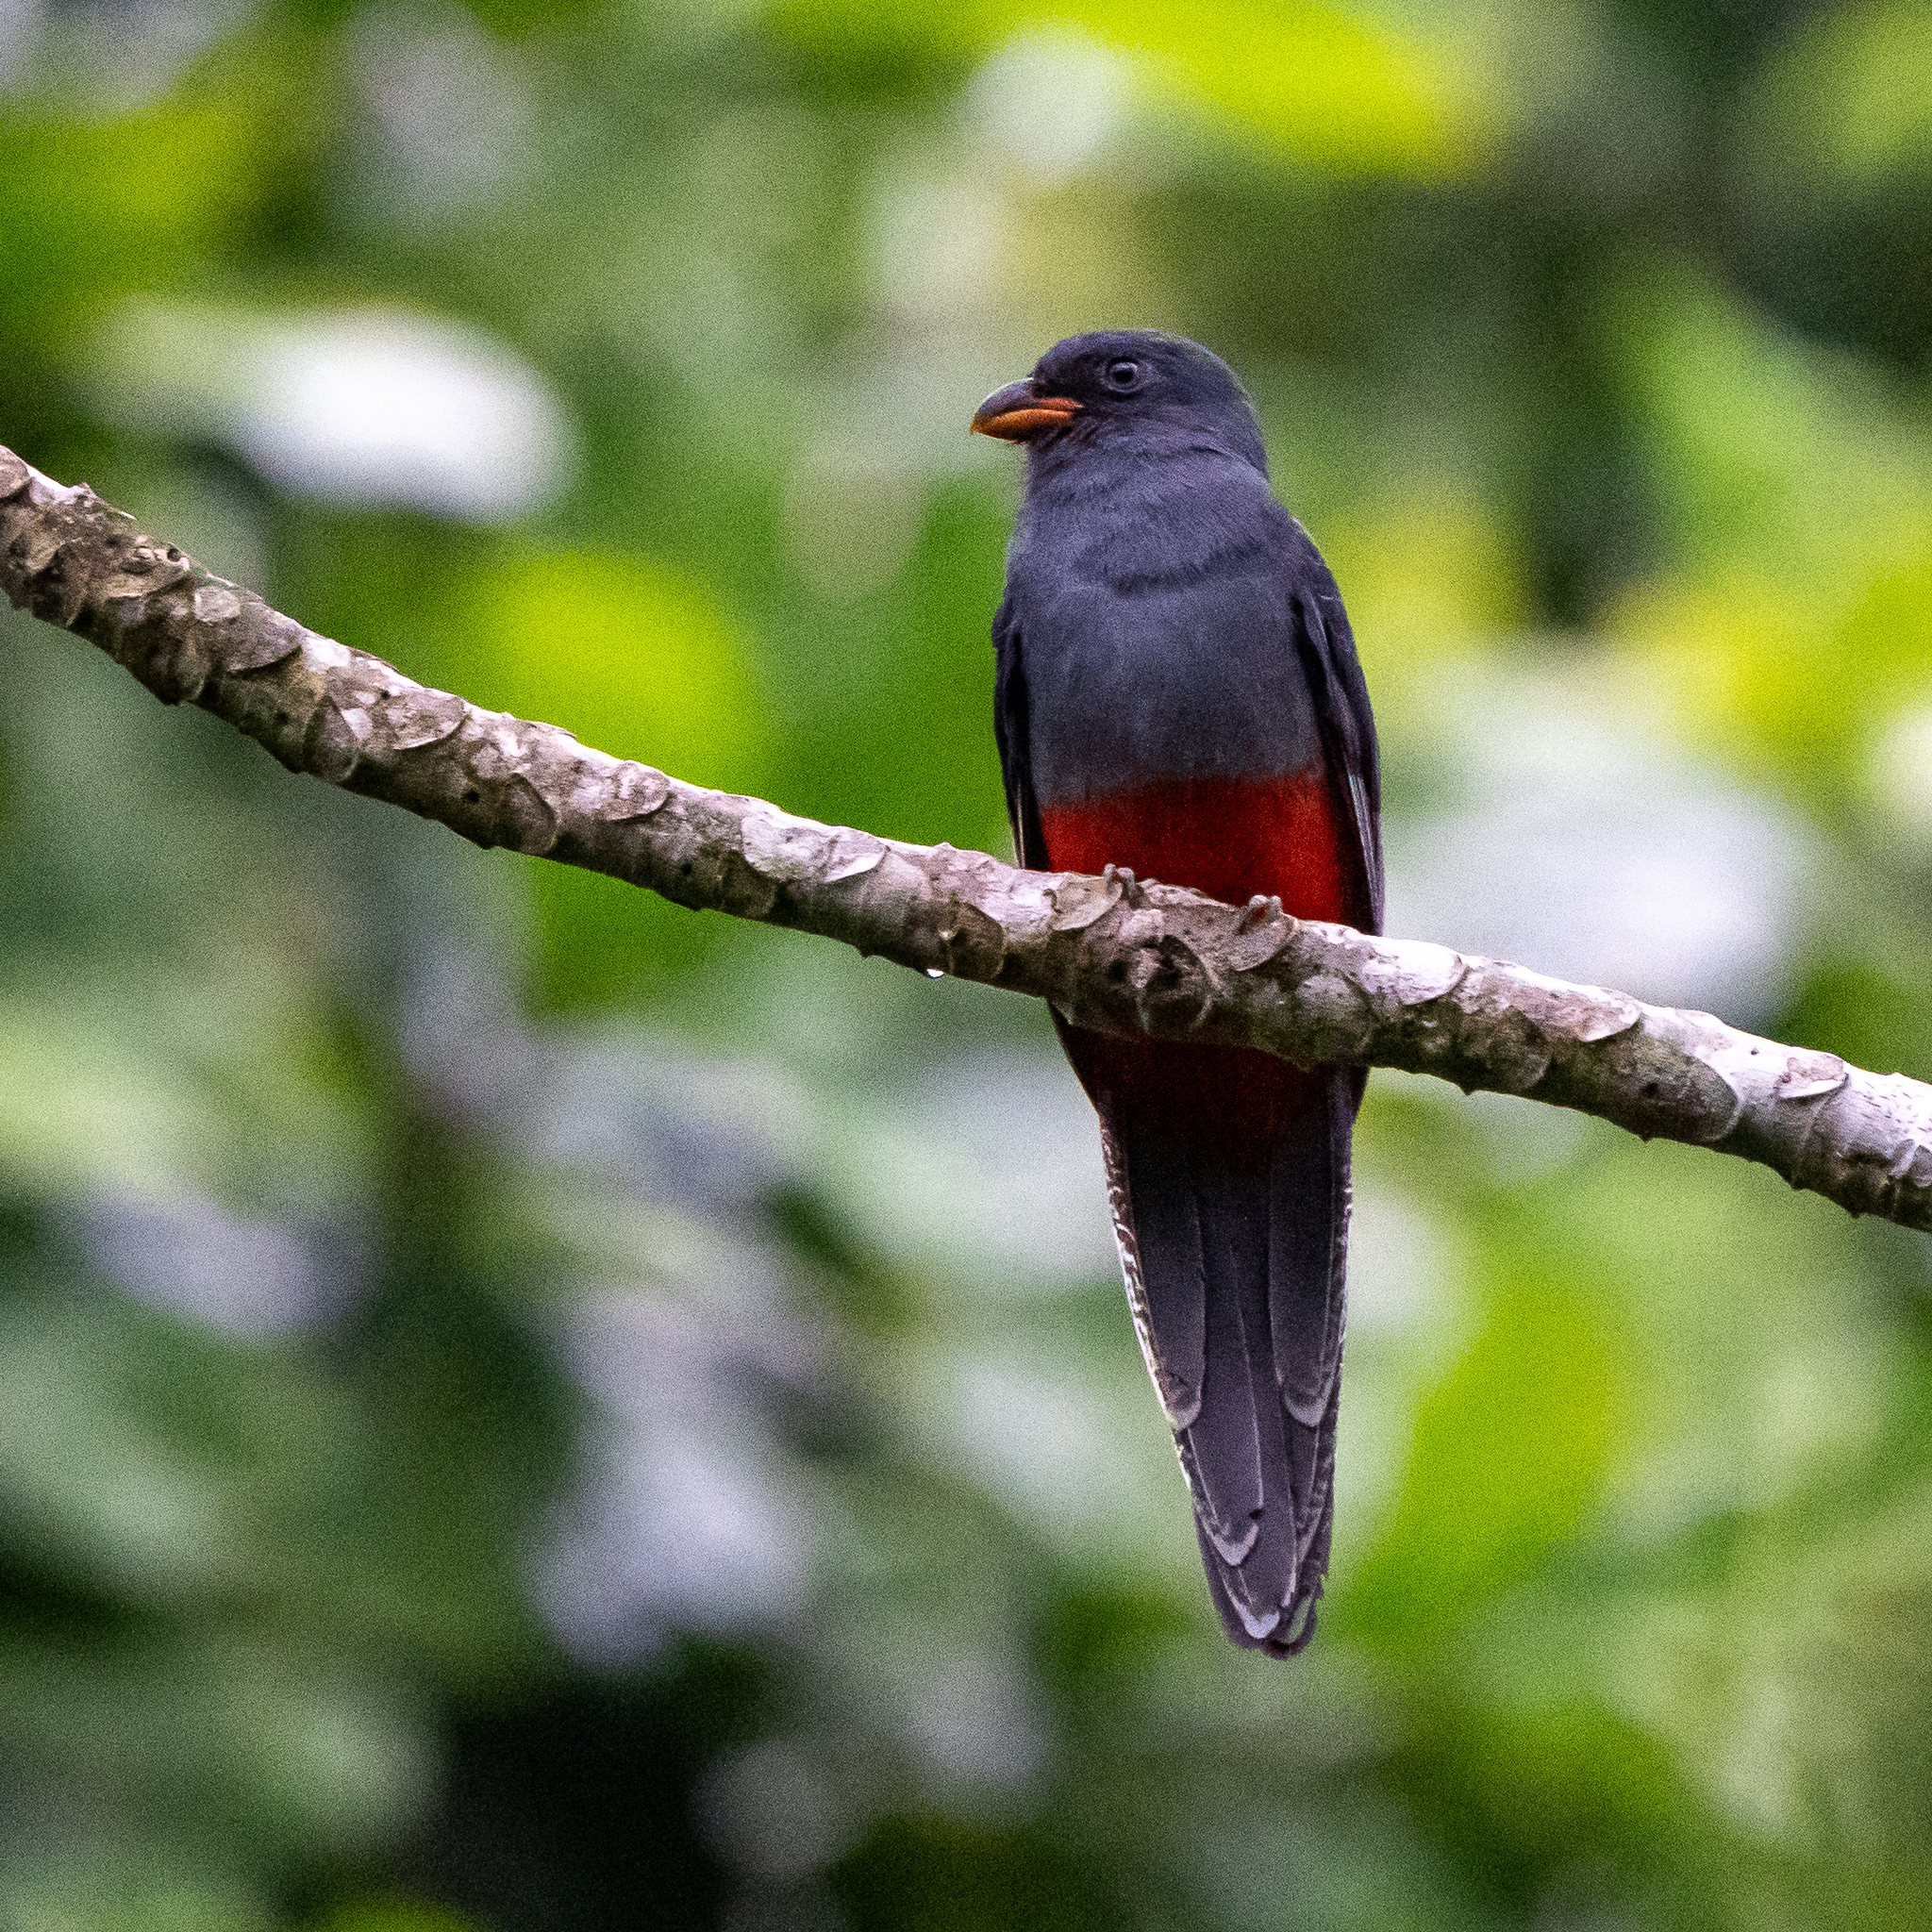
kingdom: Animalia
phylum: Chordata
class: Aves
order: Trogoniformes
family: Trogonidae
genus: Trogon
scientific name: Trogon massena
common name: Slaty-tailed trogon
